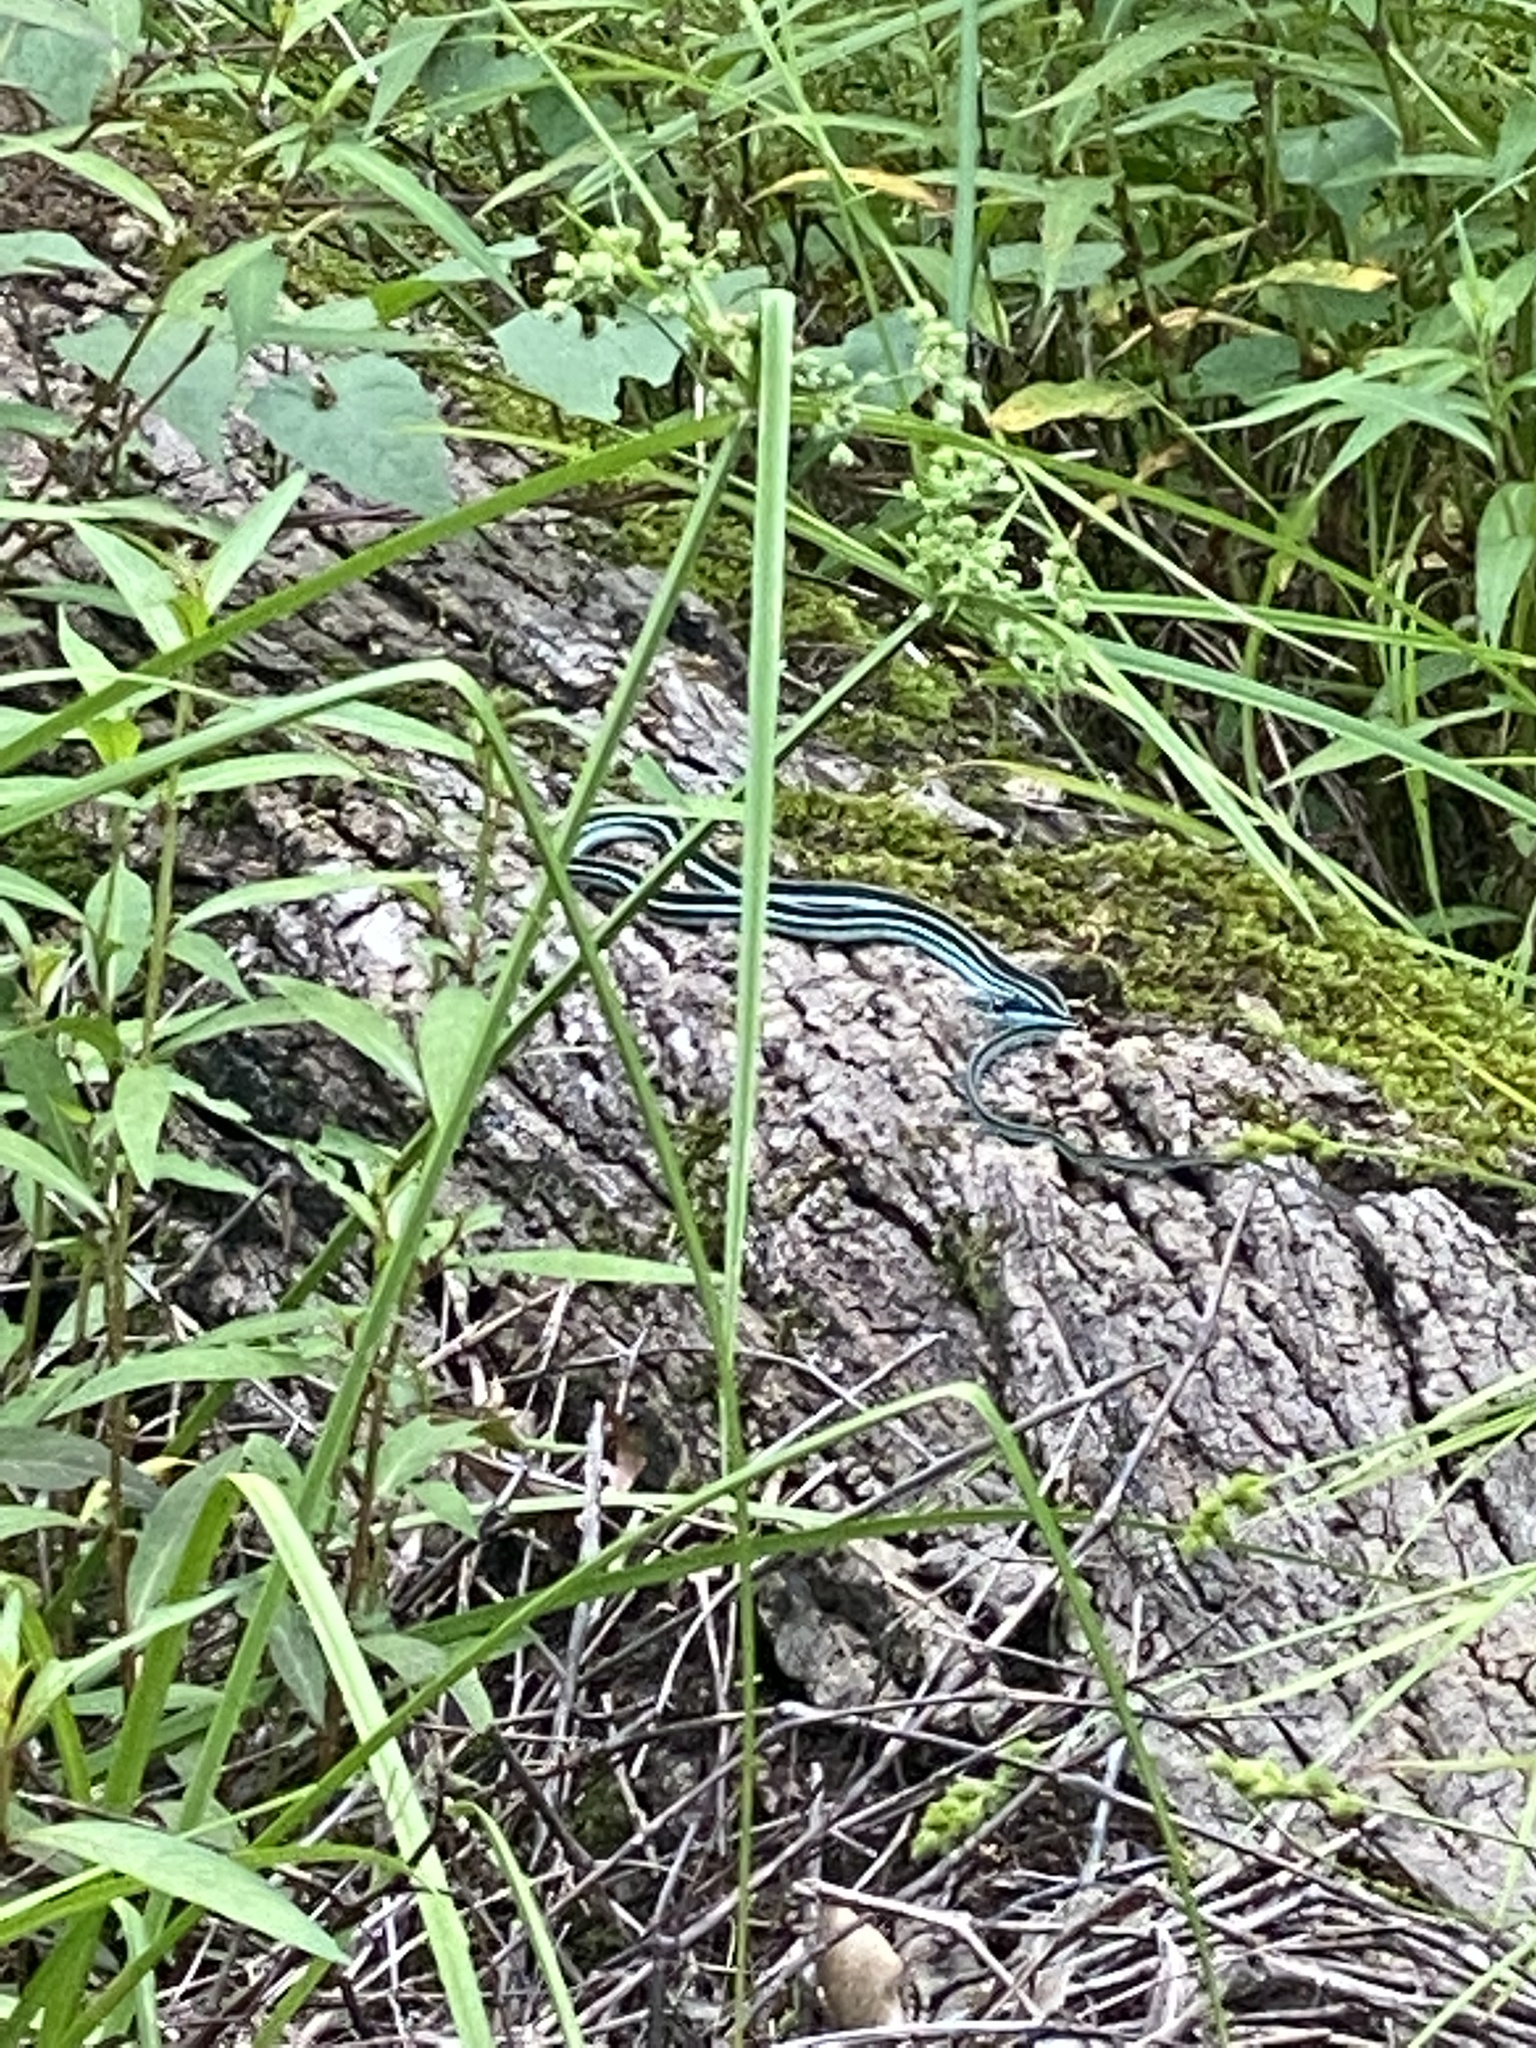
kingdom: Animalia
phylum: Chordata
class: Squamata
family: Colubridae
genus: Thamnophis
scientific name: Thamnophis proximus
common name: Western ribbon snake
